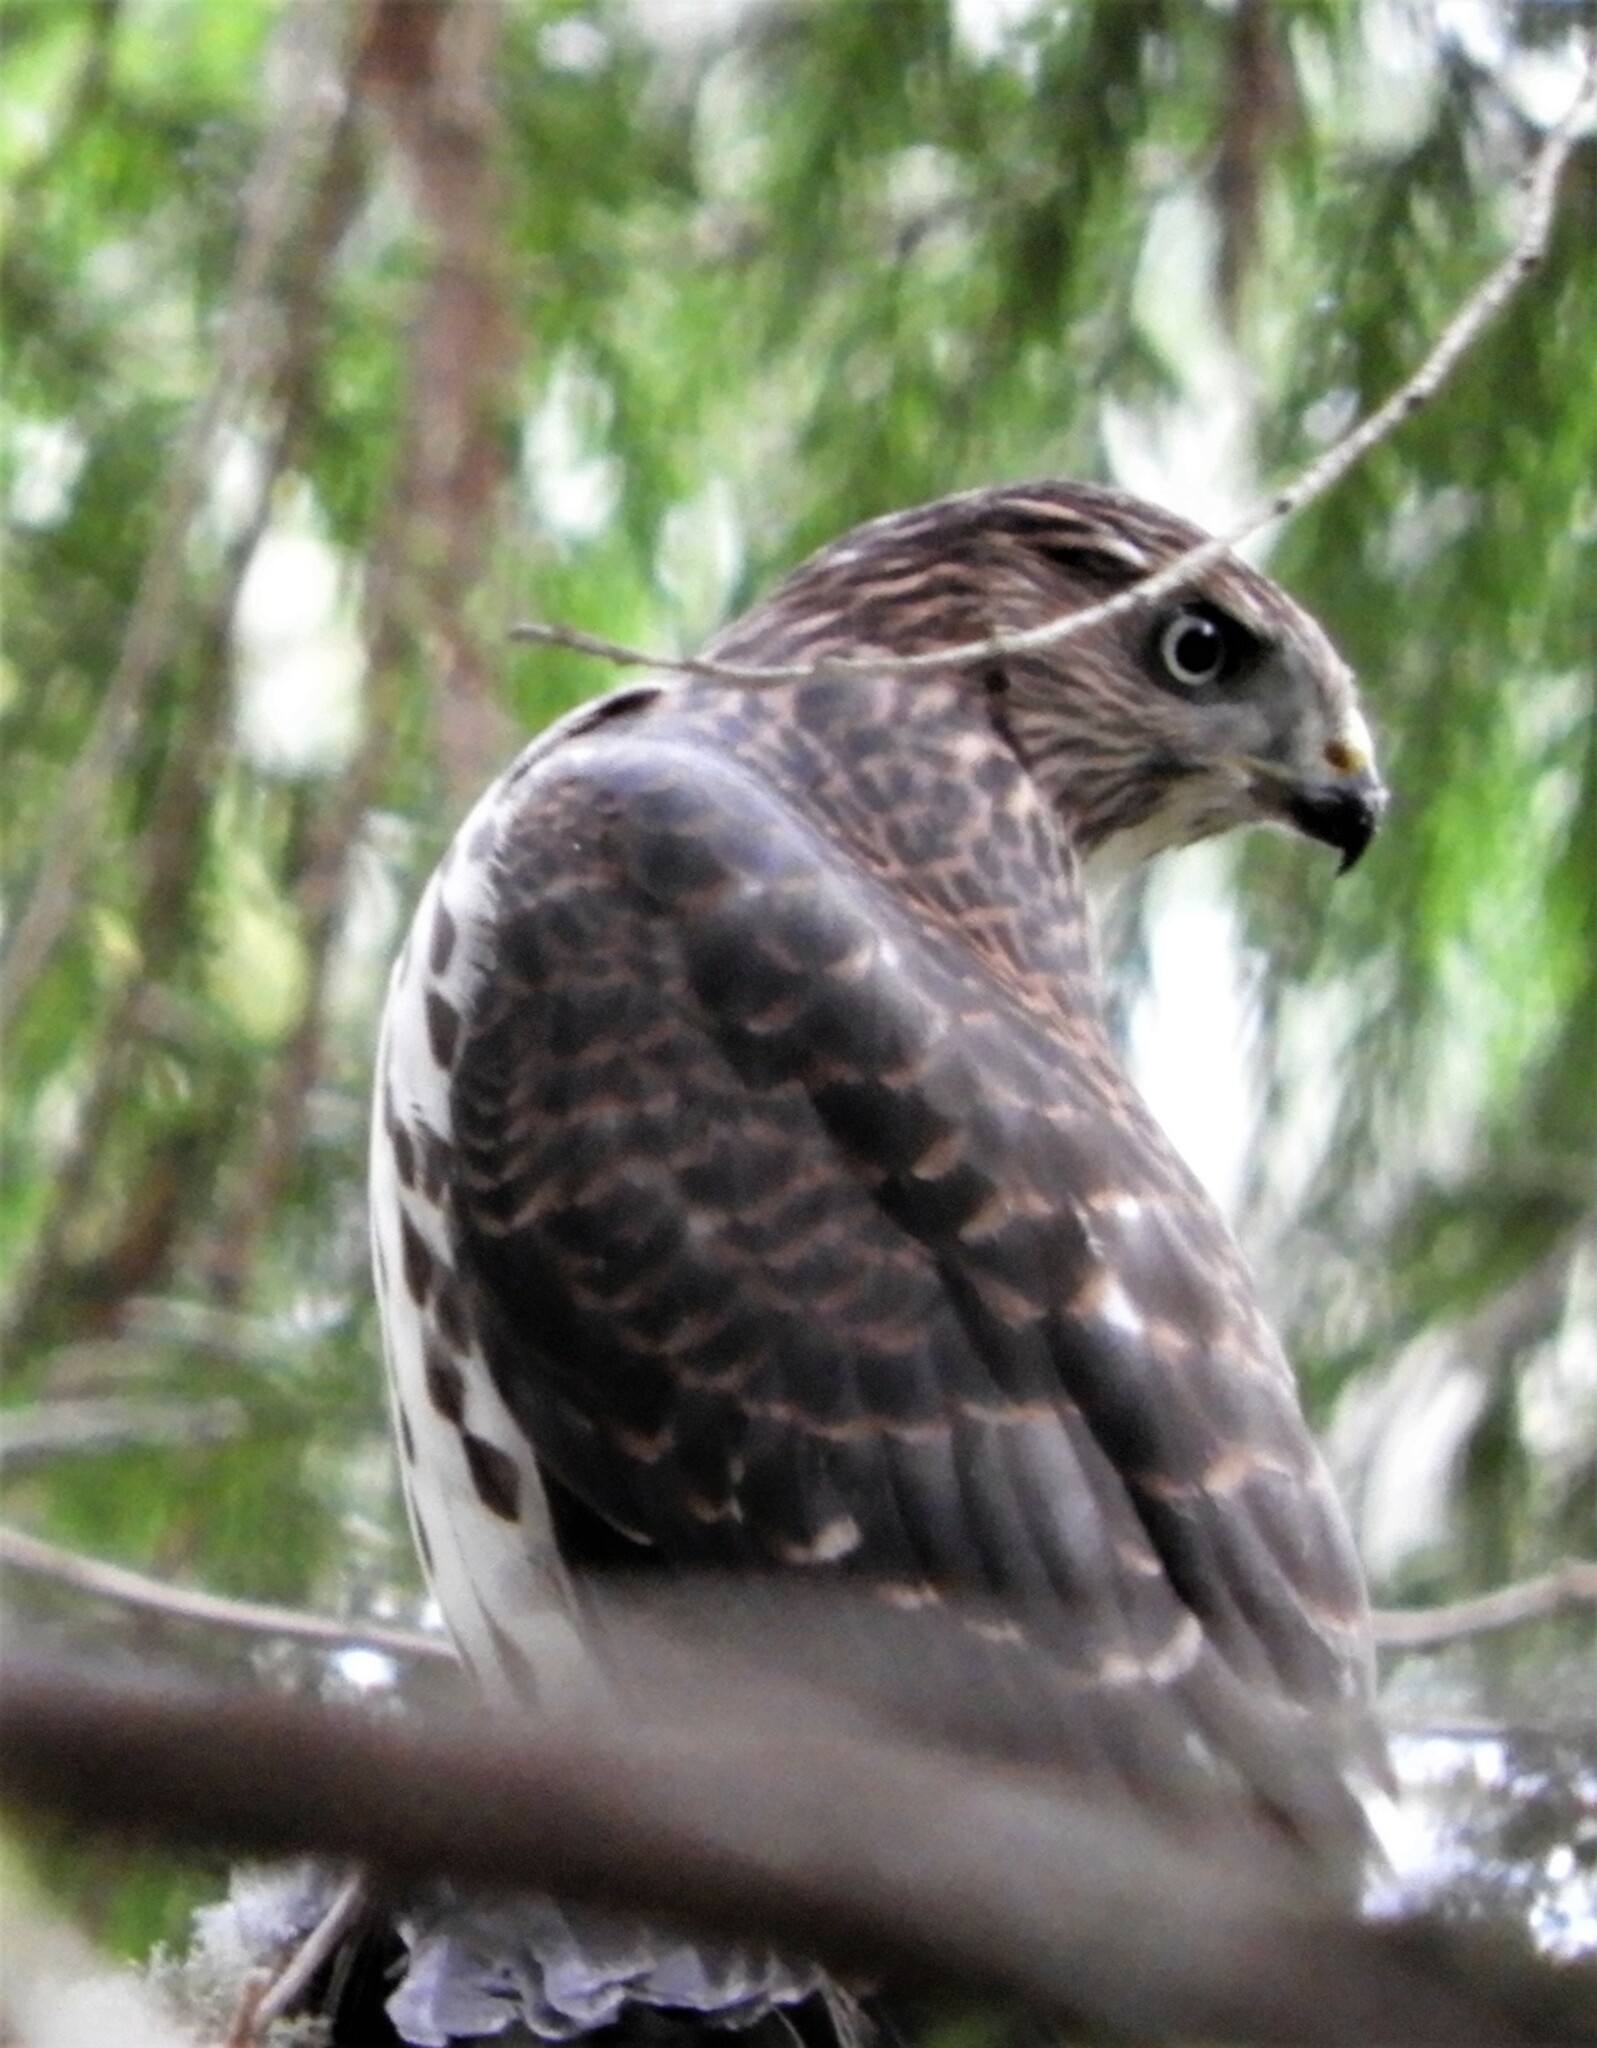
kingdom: Animalia
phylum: Chordata
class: Aves
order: Accipitriformes
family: Accipitridae
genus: Accipiter
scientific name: Accipiter cooperii
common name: Cooper's hawk
